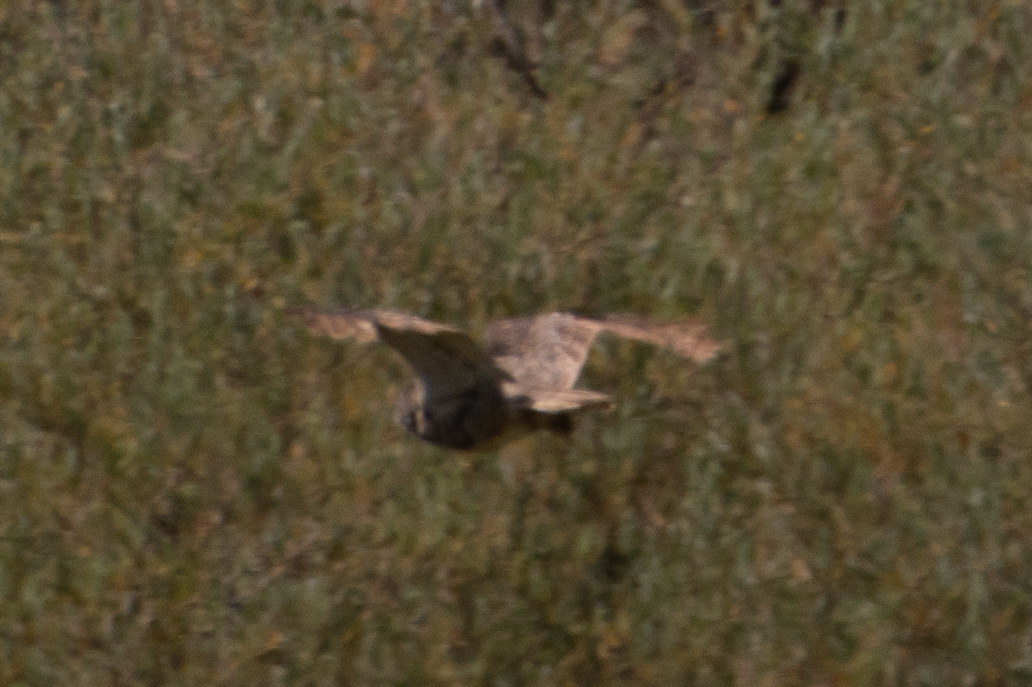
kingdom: Animalia
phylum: Chordata
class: Aves
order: Strigiformes
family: Strigidae
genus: Bubo
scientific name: Bubo virginianus
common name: Great horned owl
